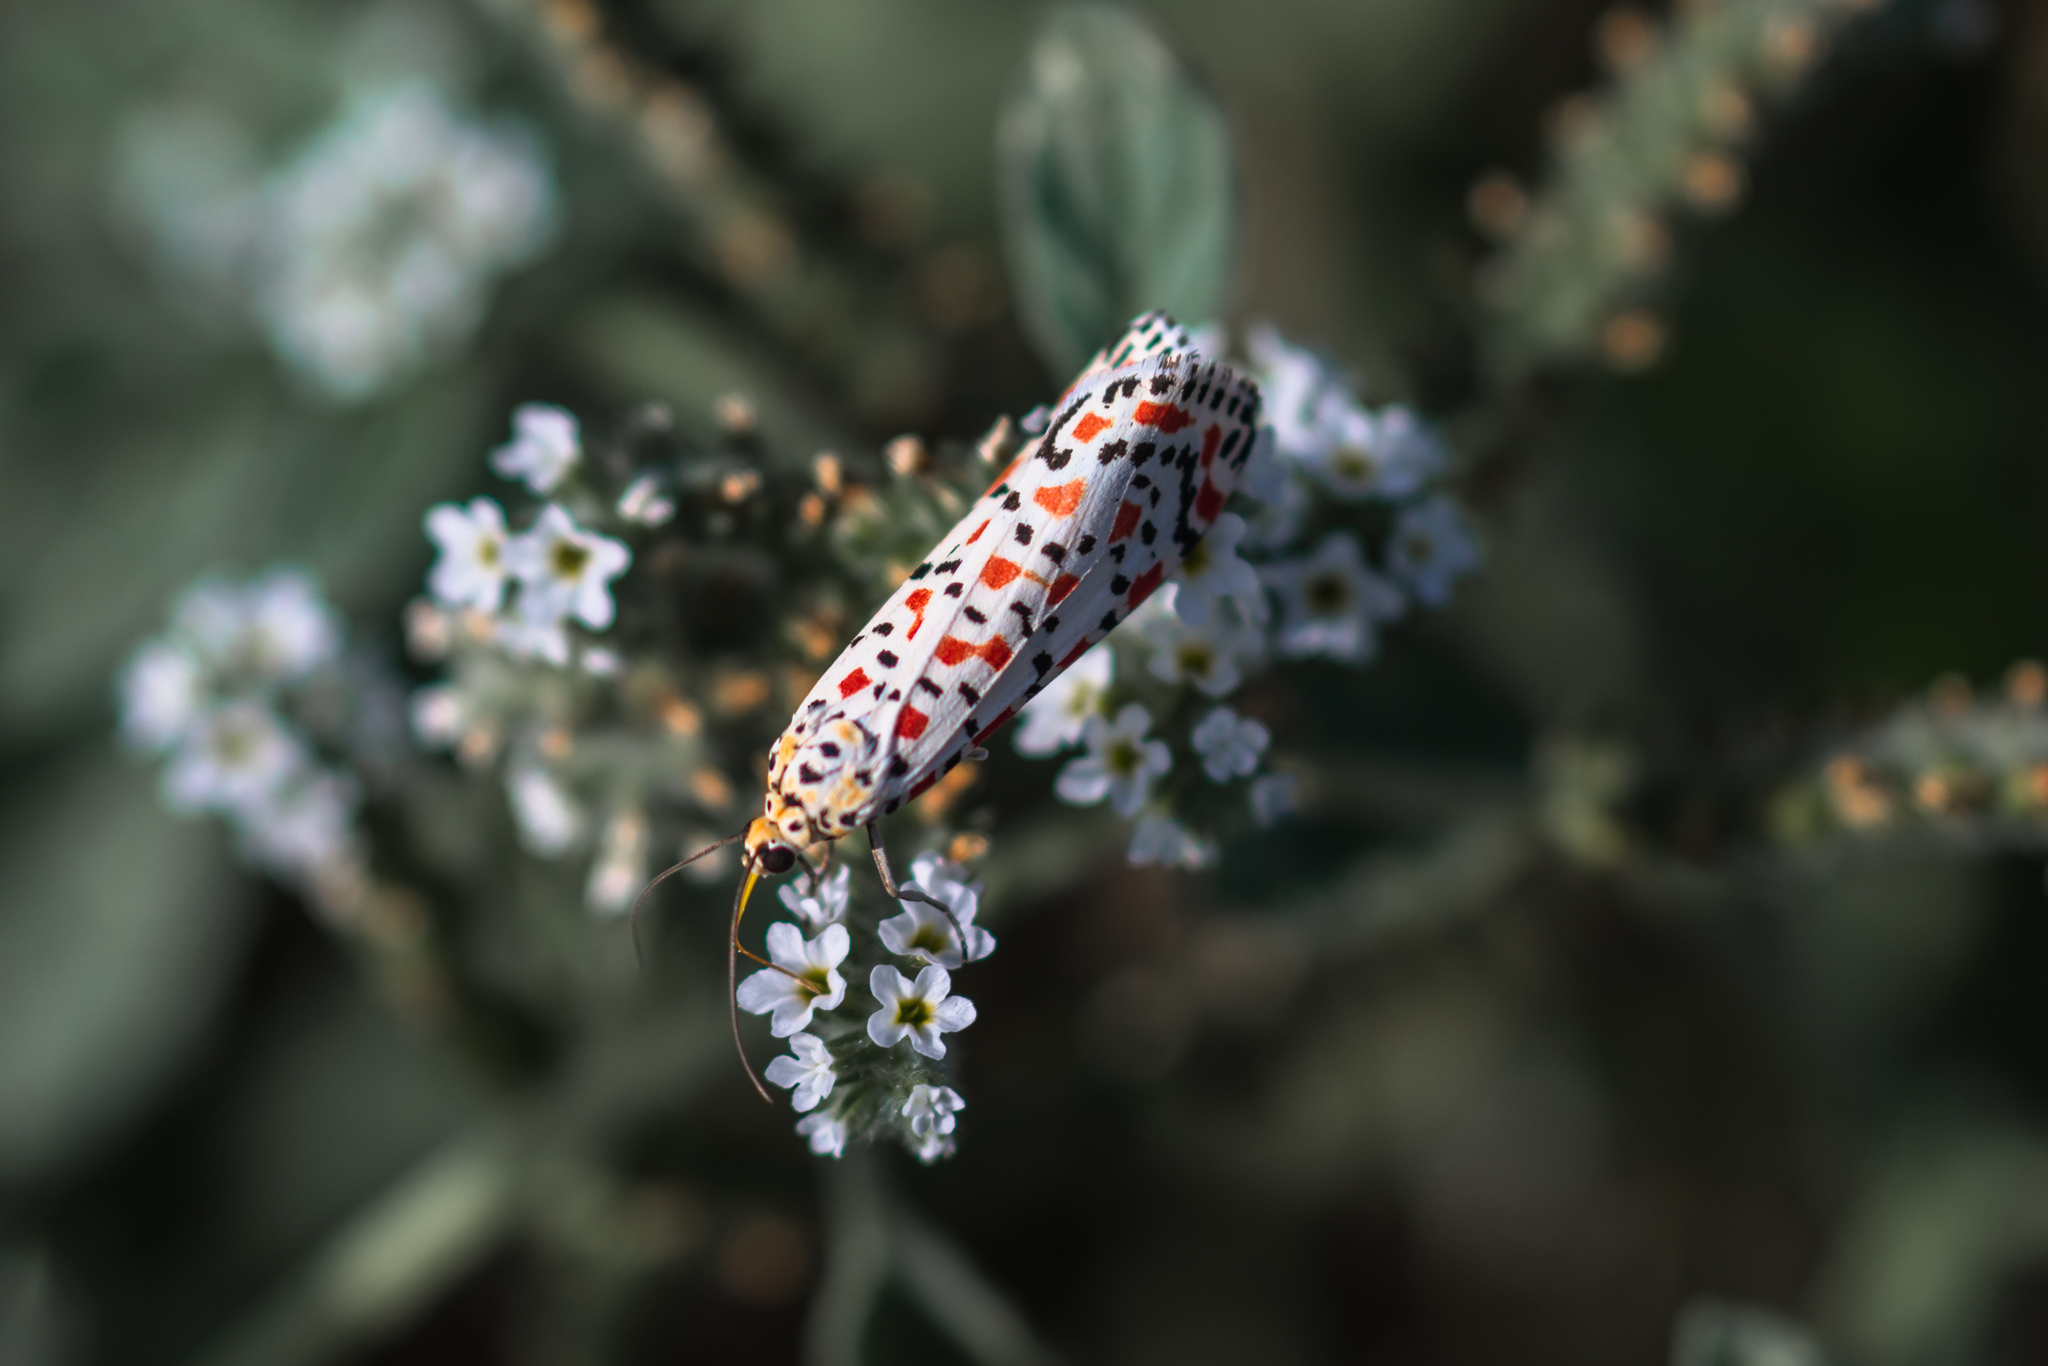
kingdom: Animalia
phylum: Arthropoda
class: Insecta
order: Lepidoptera
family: Erebidae
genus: Utetheisa
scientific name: Utetheisa pulchella
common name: Crimson speckled
